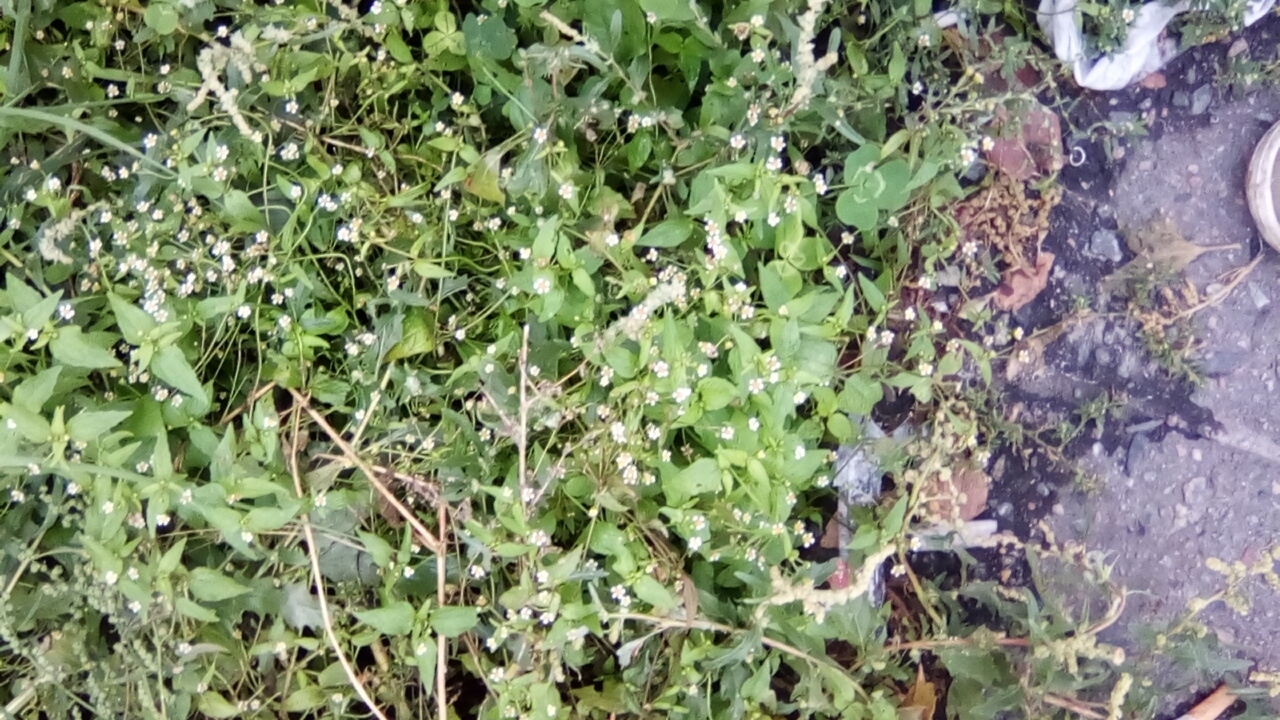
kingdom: Plantae
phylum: Tracheophyta
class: Magnoliopsida
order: Asterales
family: Asteraceae
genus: Galinsoga
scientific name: Galinsoga quadriradiata
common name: Shaggy soldier
